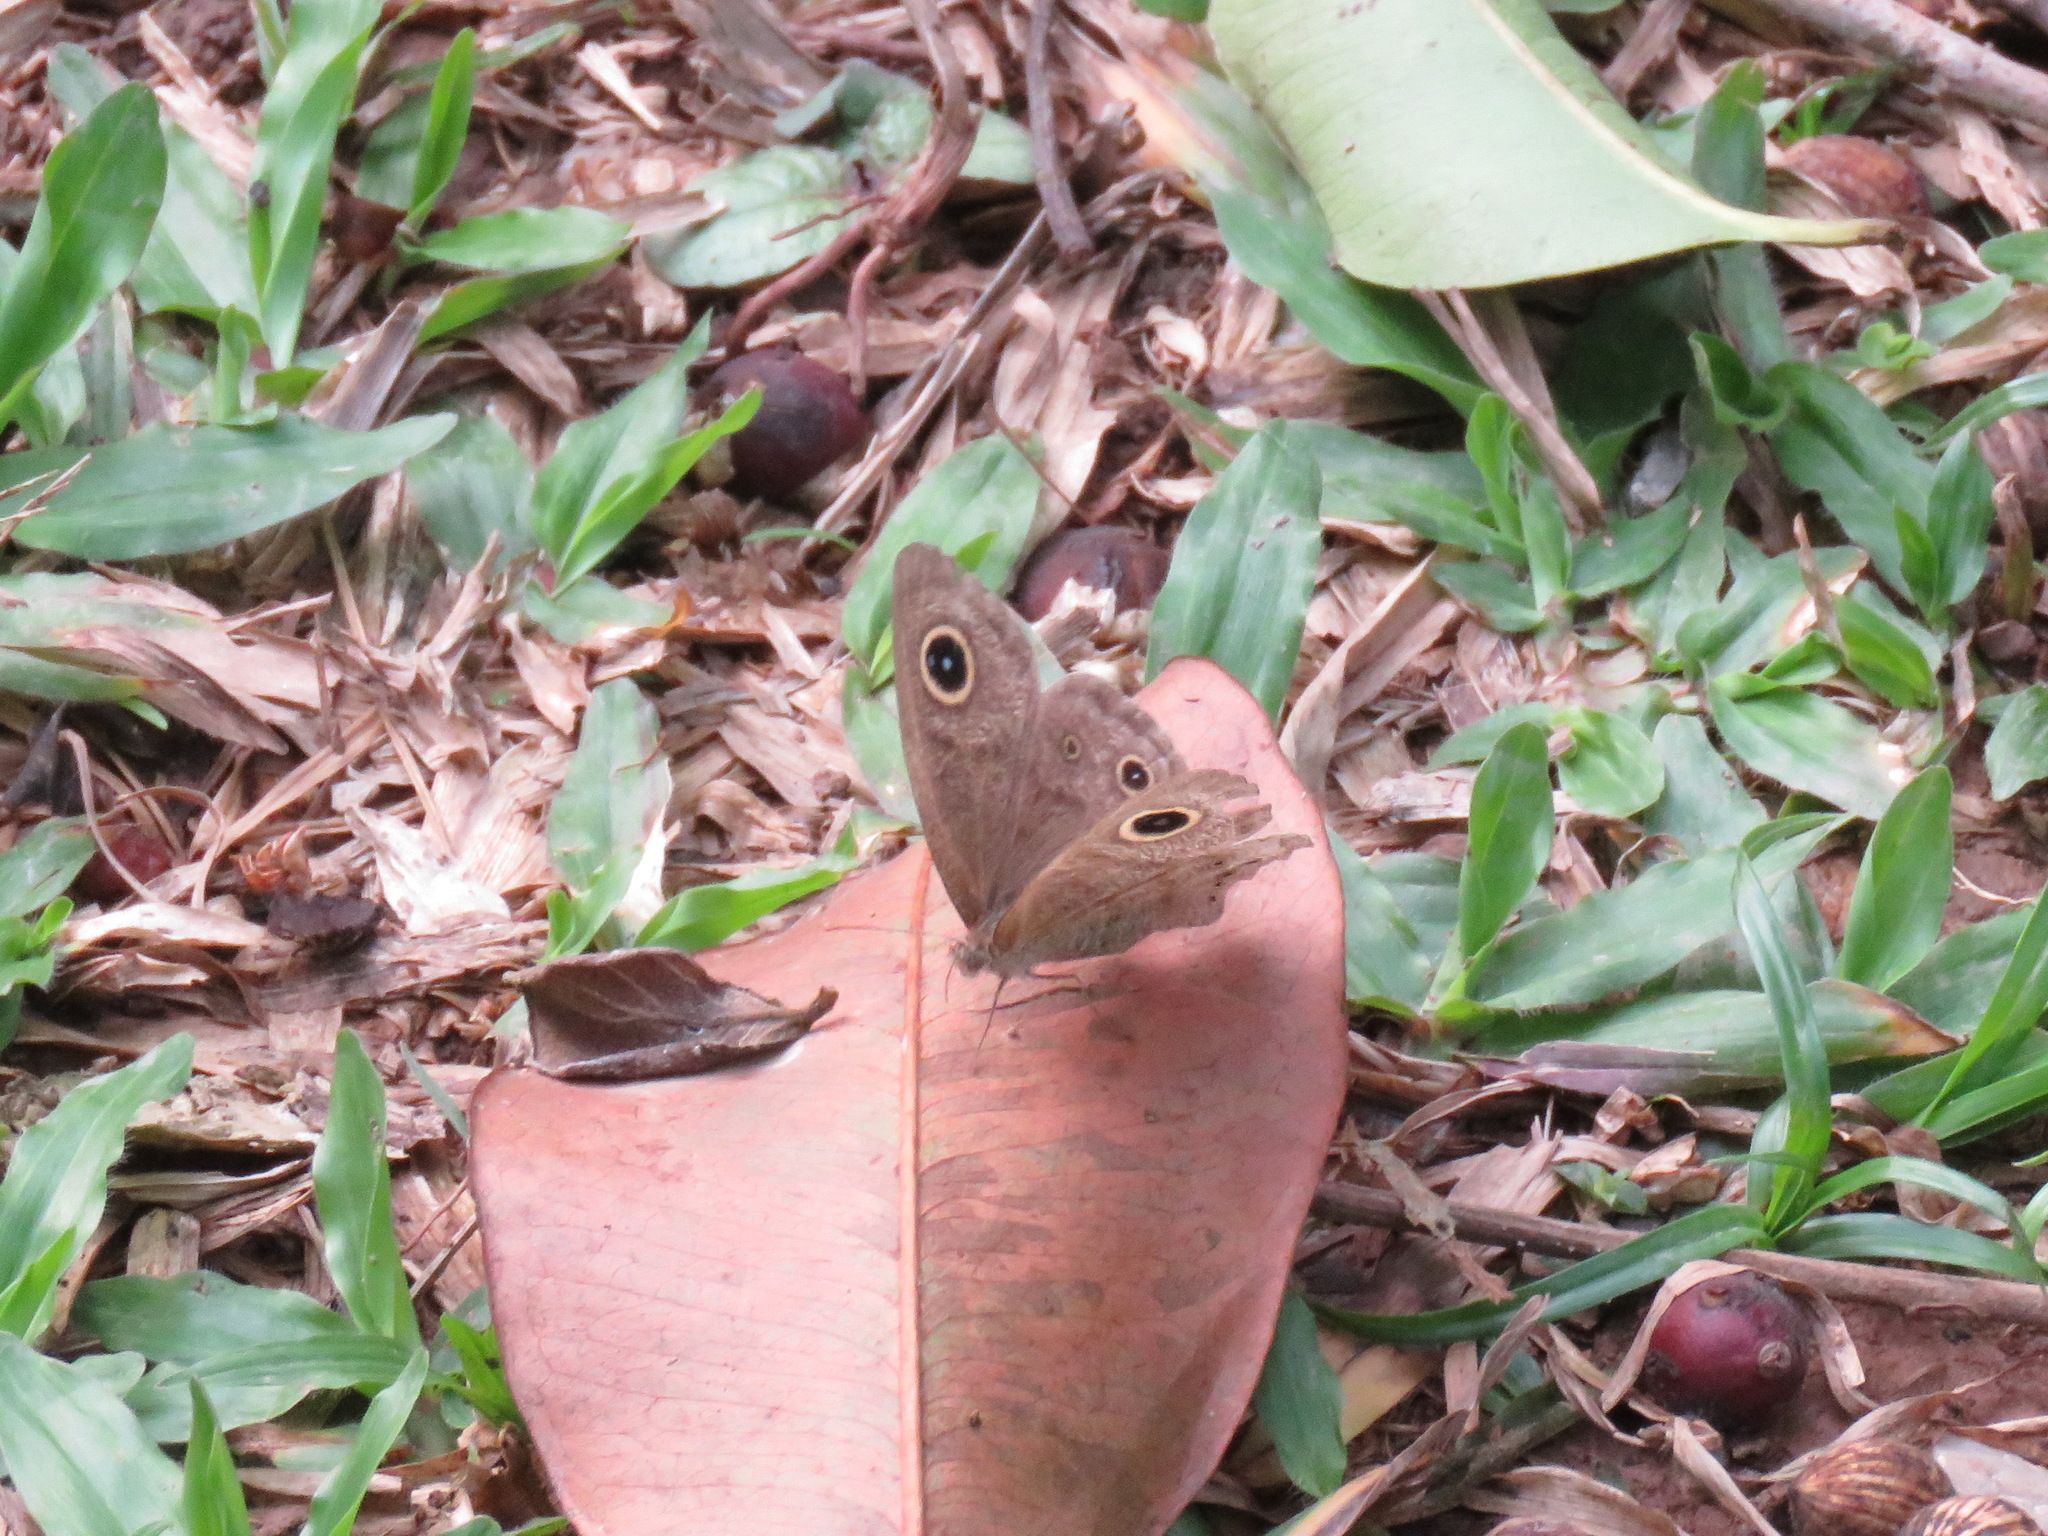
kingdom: Animalia
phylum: Arthropoda
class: Insecta
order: Lepidoptera
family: Nymphalidae
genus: Ypthima
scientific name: Ypthima baldus
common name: Common five-ring
